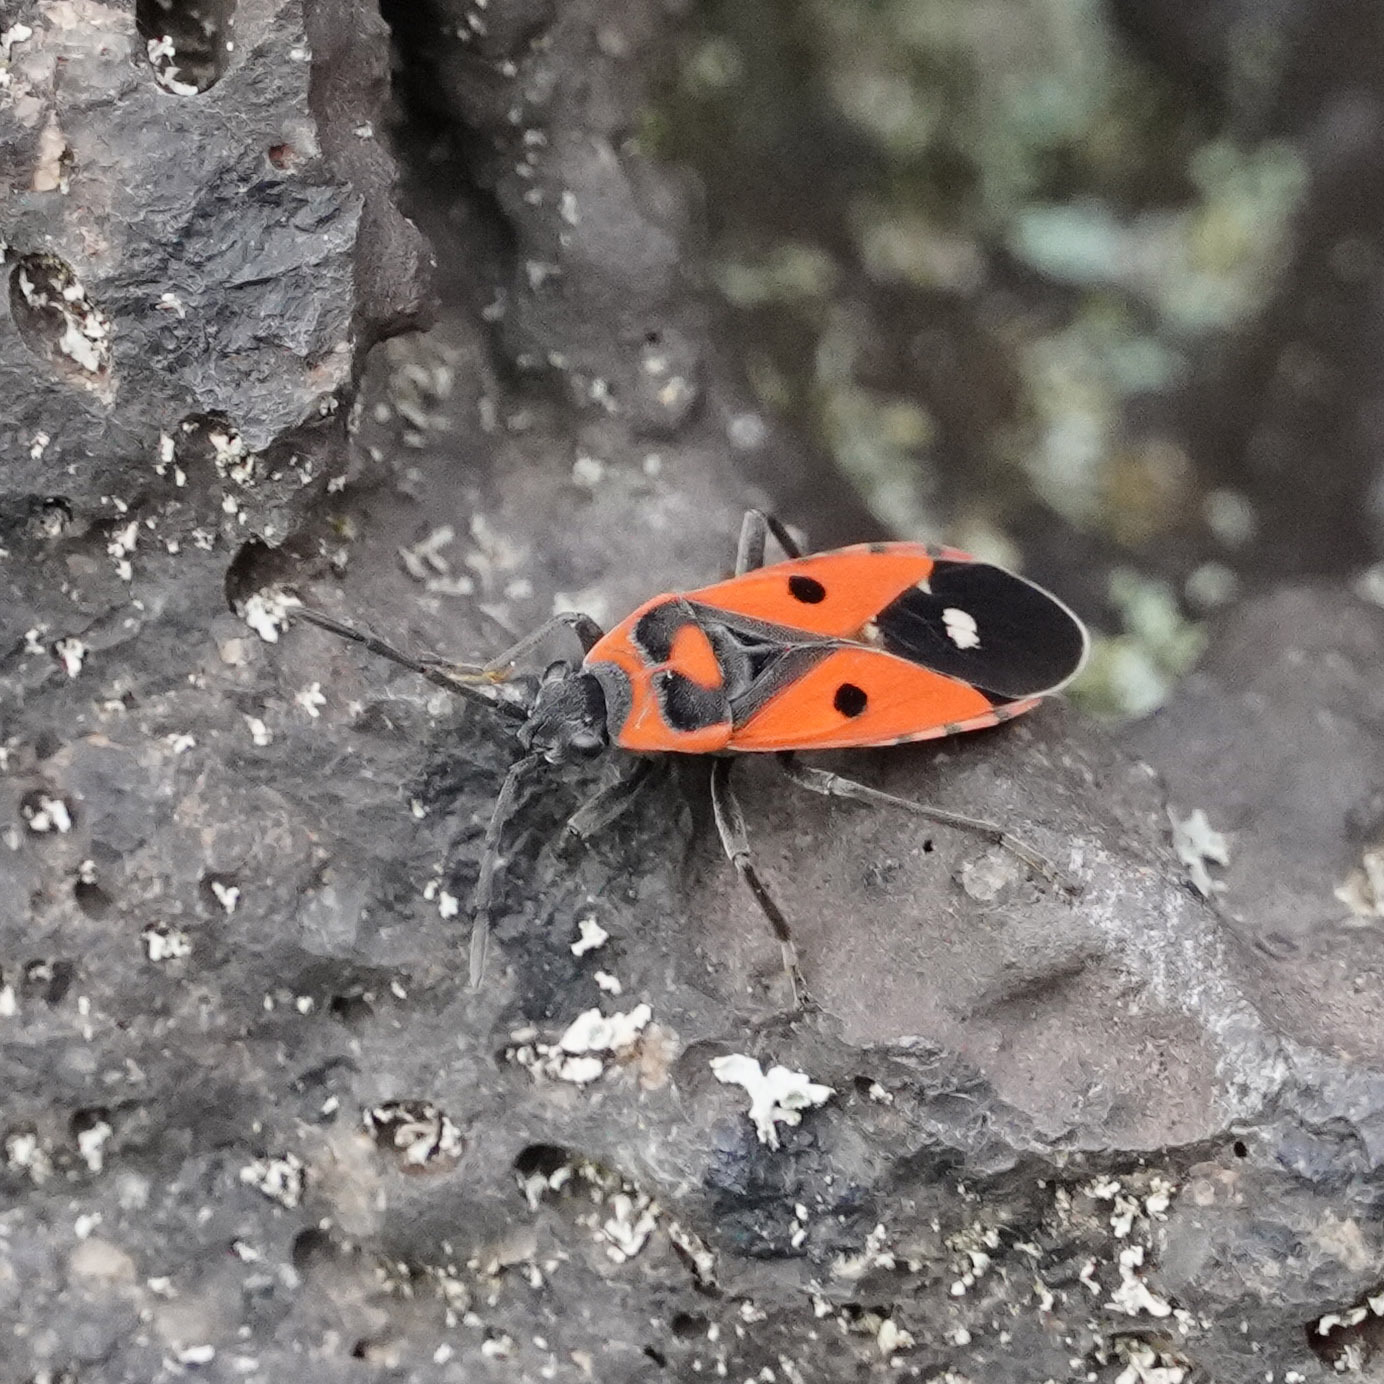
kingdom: Animalia
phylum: Arthropoda
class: Insecta
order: Hemiptera
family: Lygaeidae
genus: Melanocoryphus
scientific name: Melanocoryphus albomaculatus
